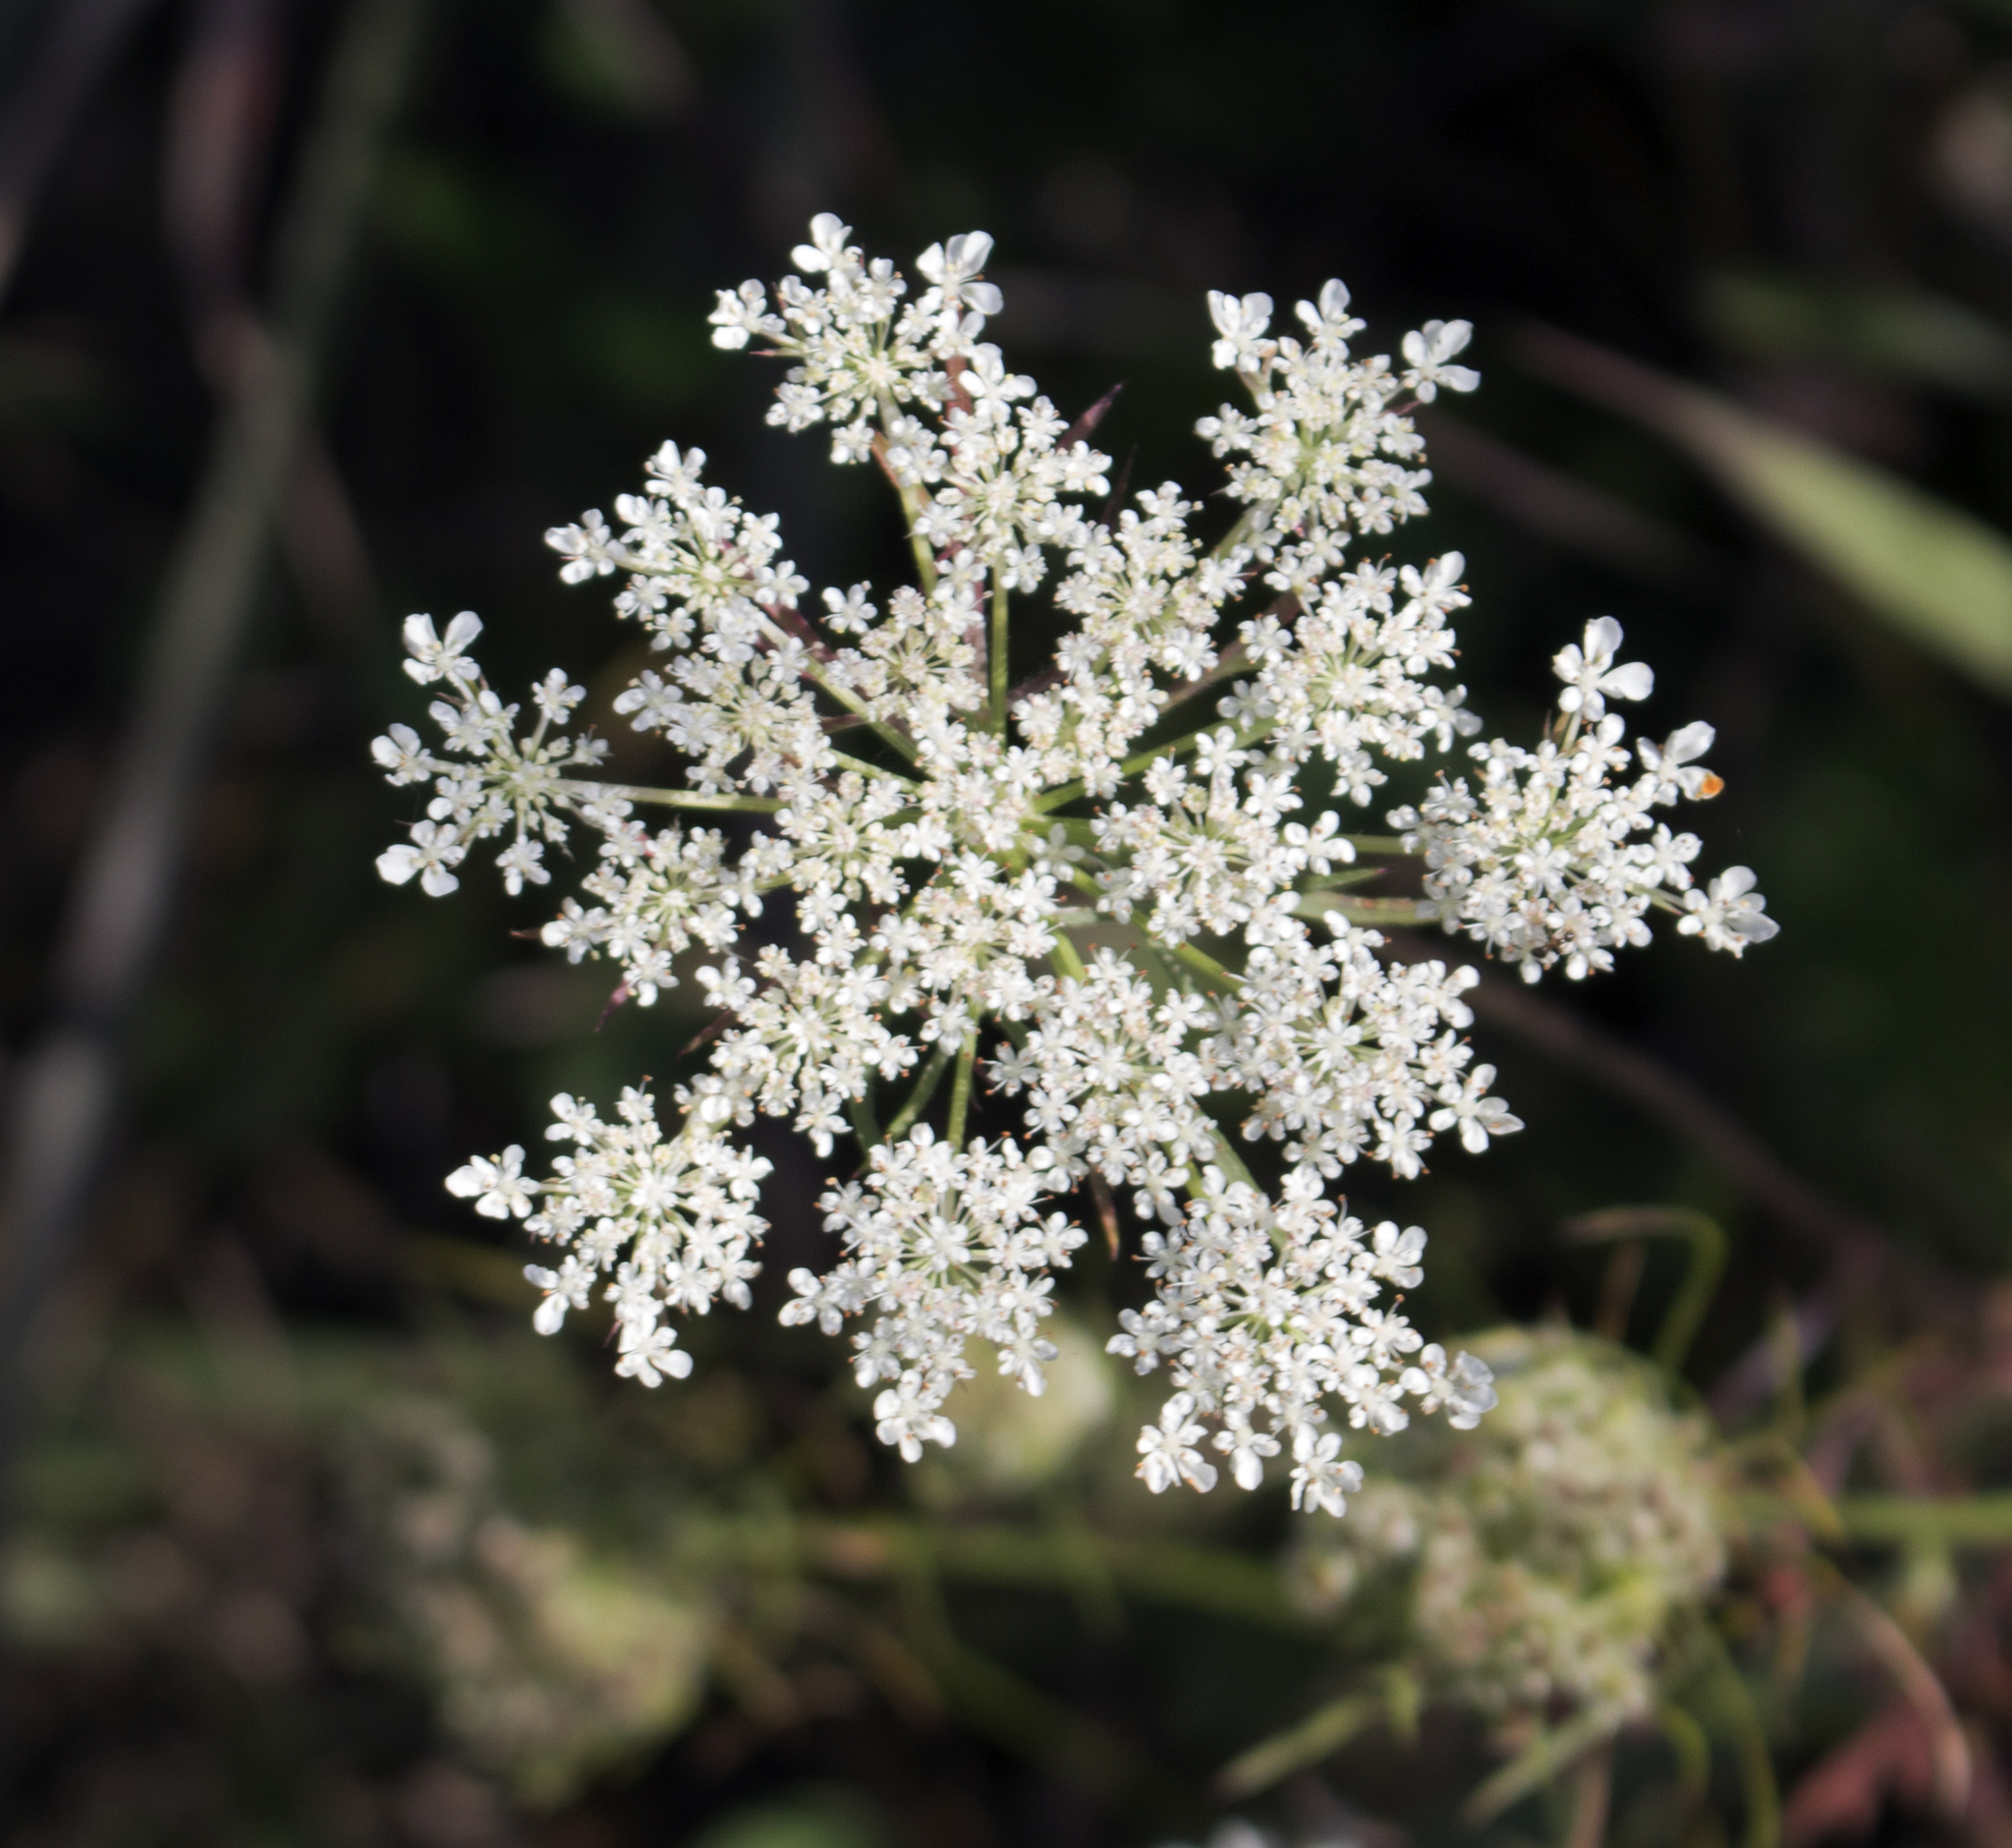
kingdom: Plantae
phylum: Tracheophyta
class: Magnoliopsida
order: Apiales
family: Apiaceae
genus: Daucus
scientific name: Daucus carota
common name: Wild carrot
